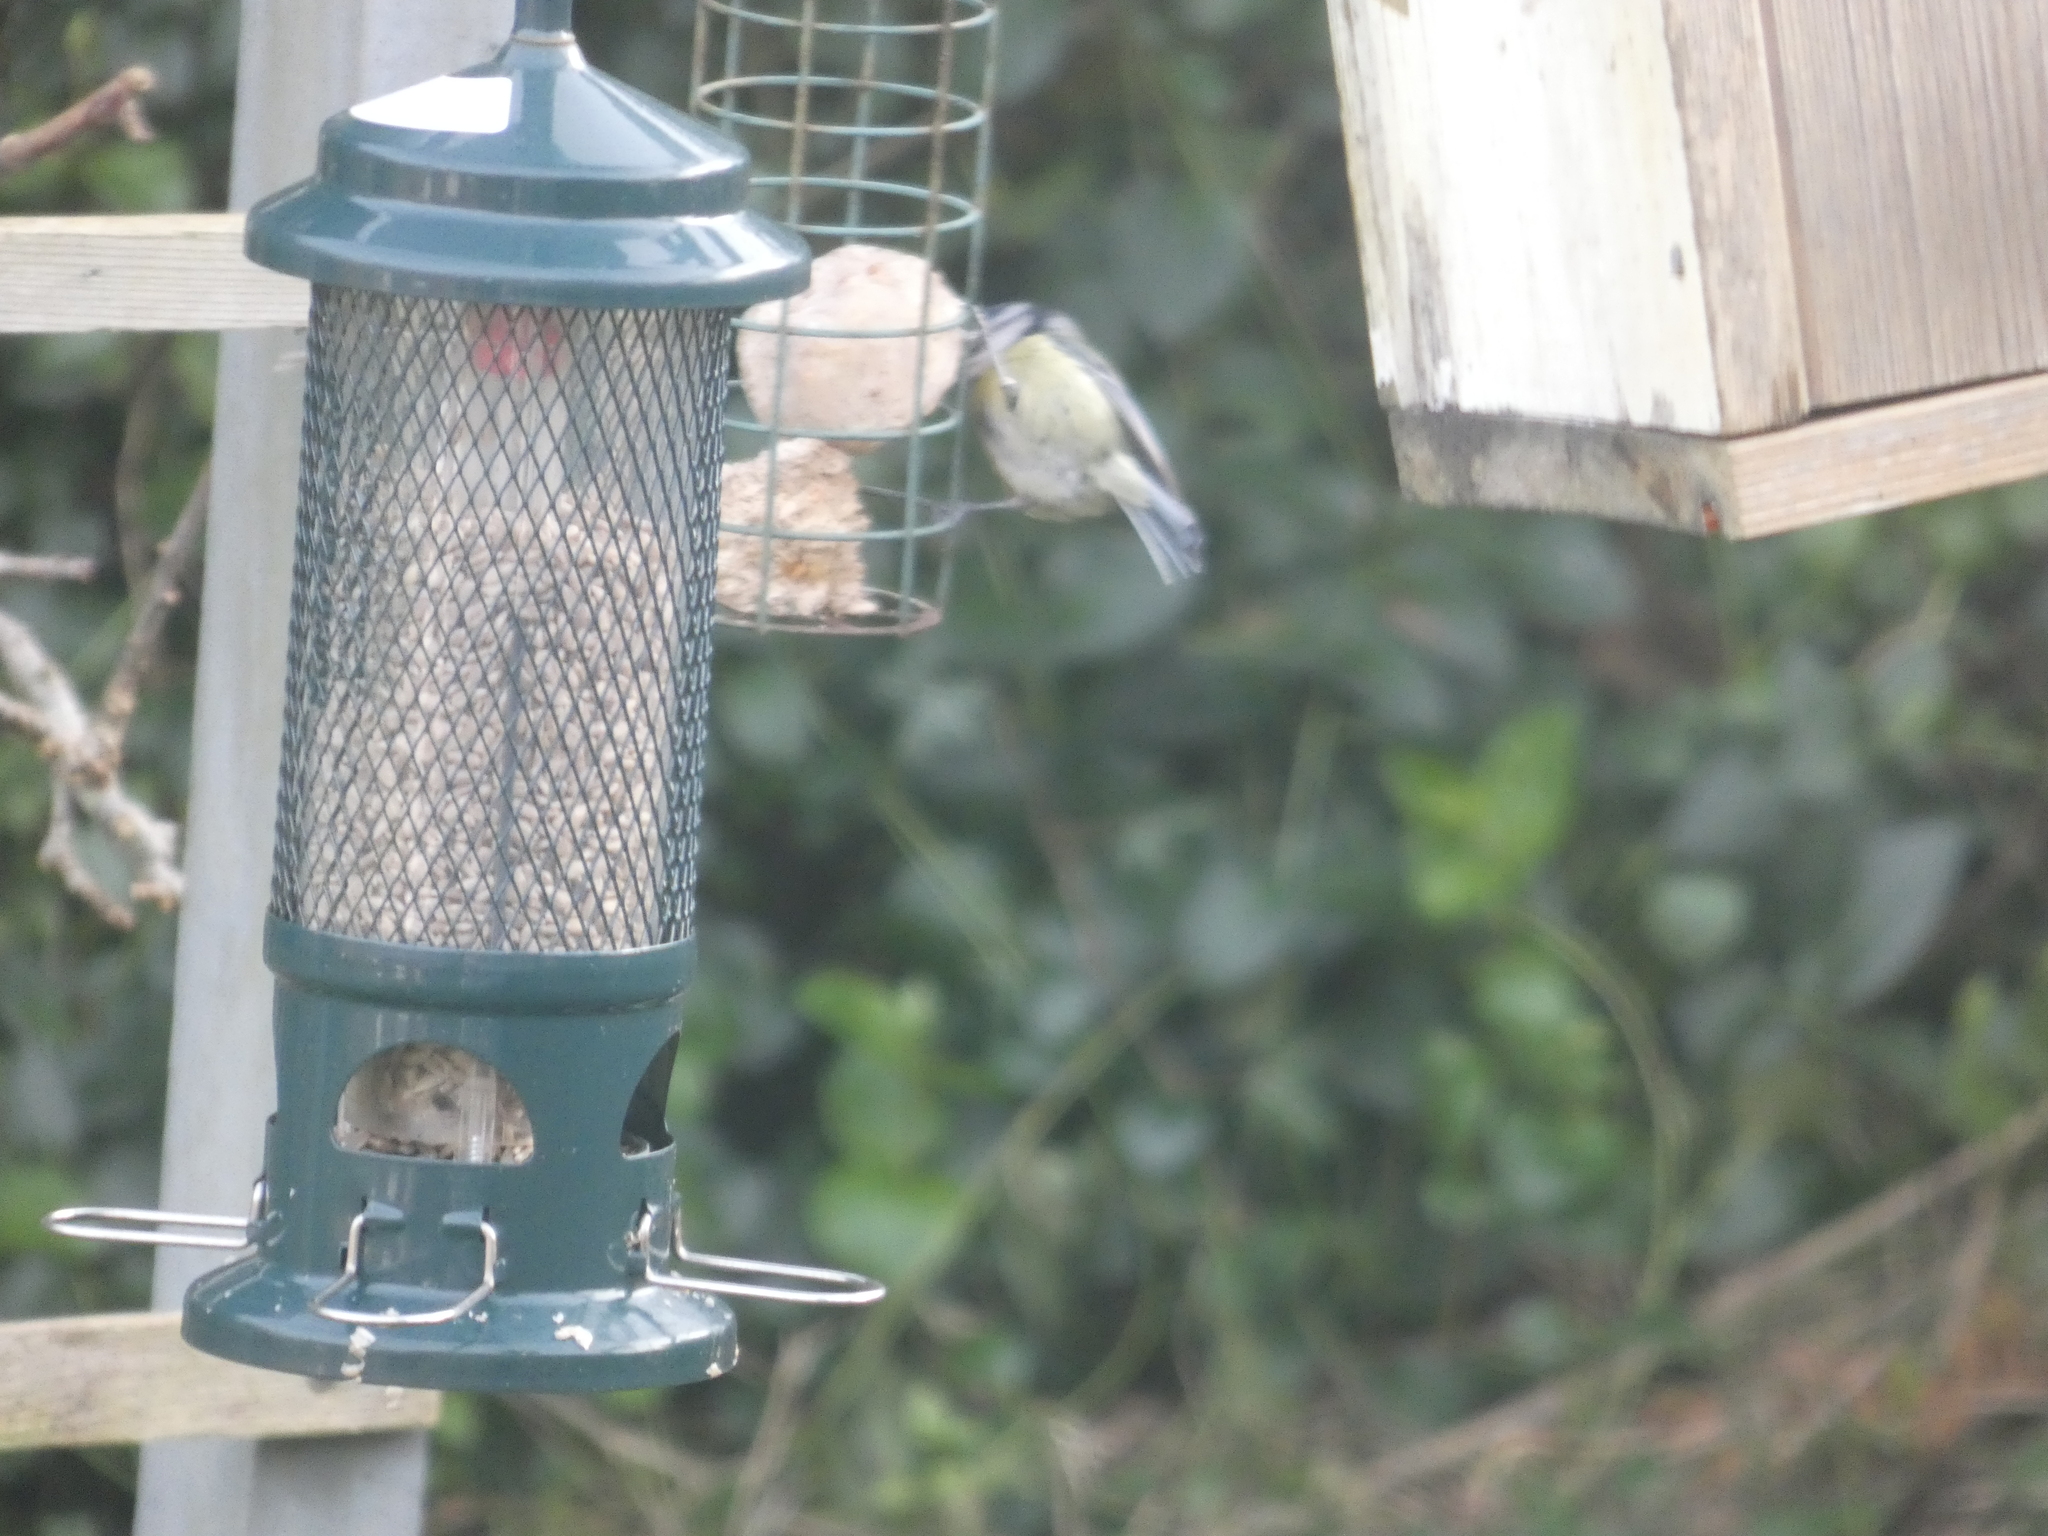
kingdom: Animalia
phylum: Chordata
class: Aves
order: Passeriformes
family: Paridae
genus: Cyanistes
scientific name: Cyanistes caeruleus
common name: Eurasian blue tit
